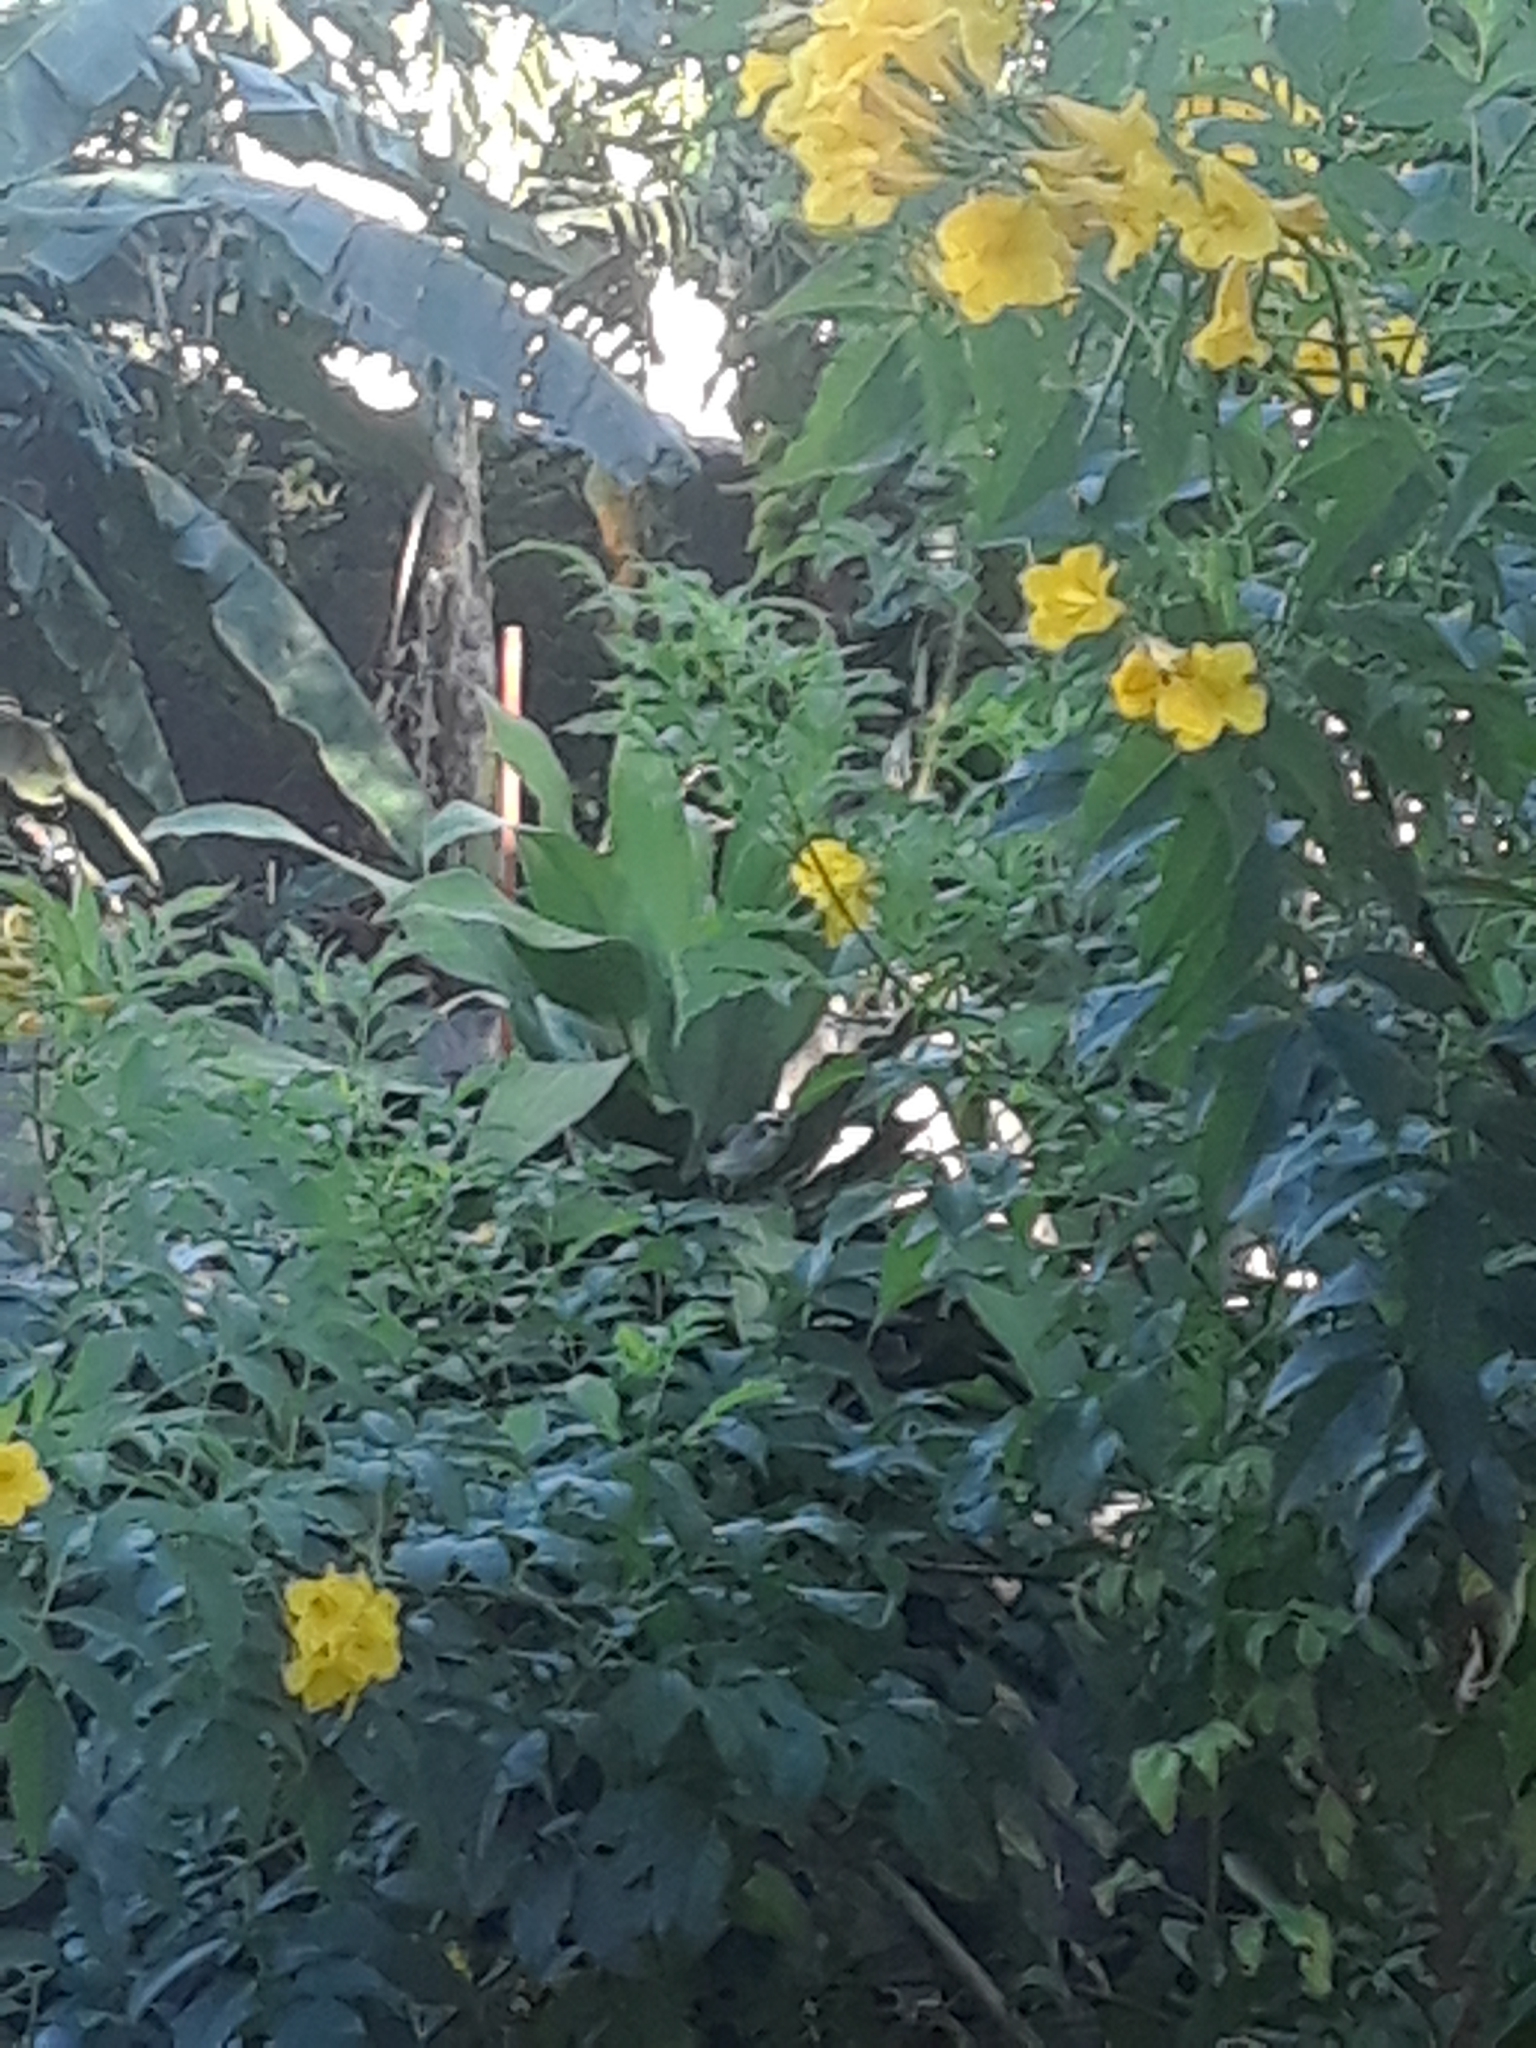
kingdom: Animalia
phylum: Chordata
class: Aves
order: Passeriformes
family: Pycnonotidae
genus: Pycnonotus
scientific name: Pycnonotus goiavier
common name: Yellow-vented bulbul
